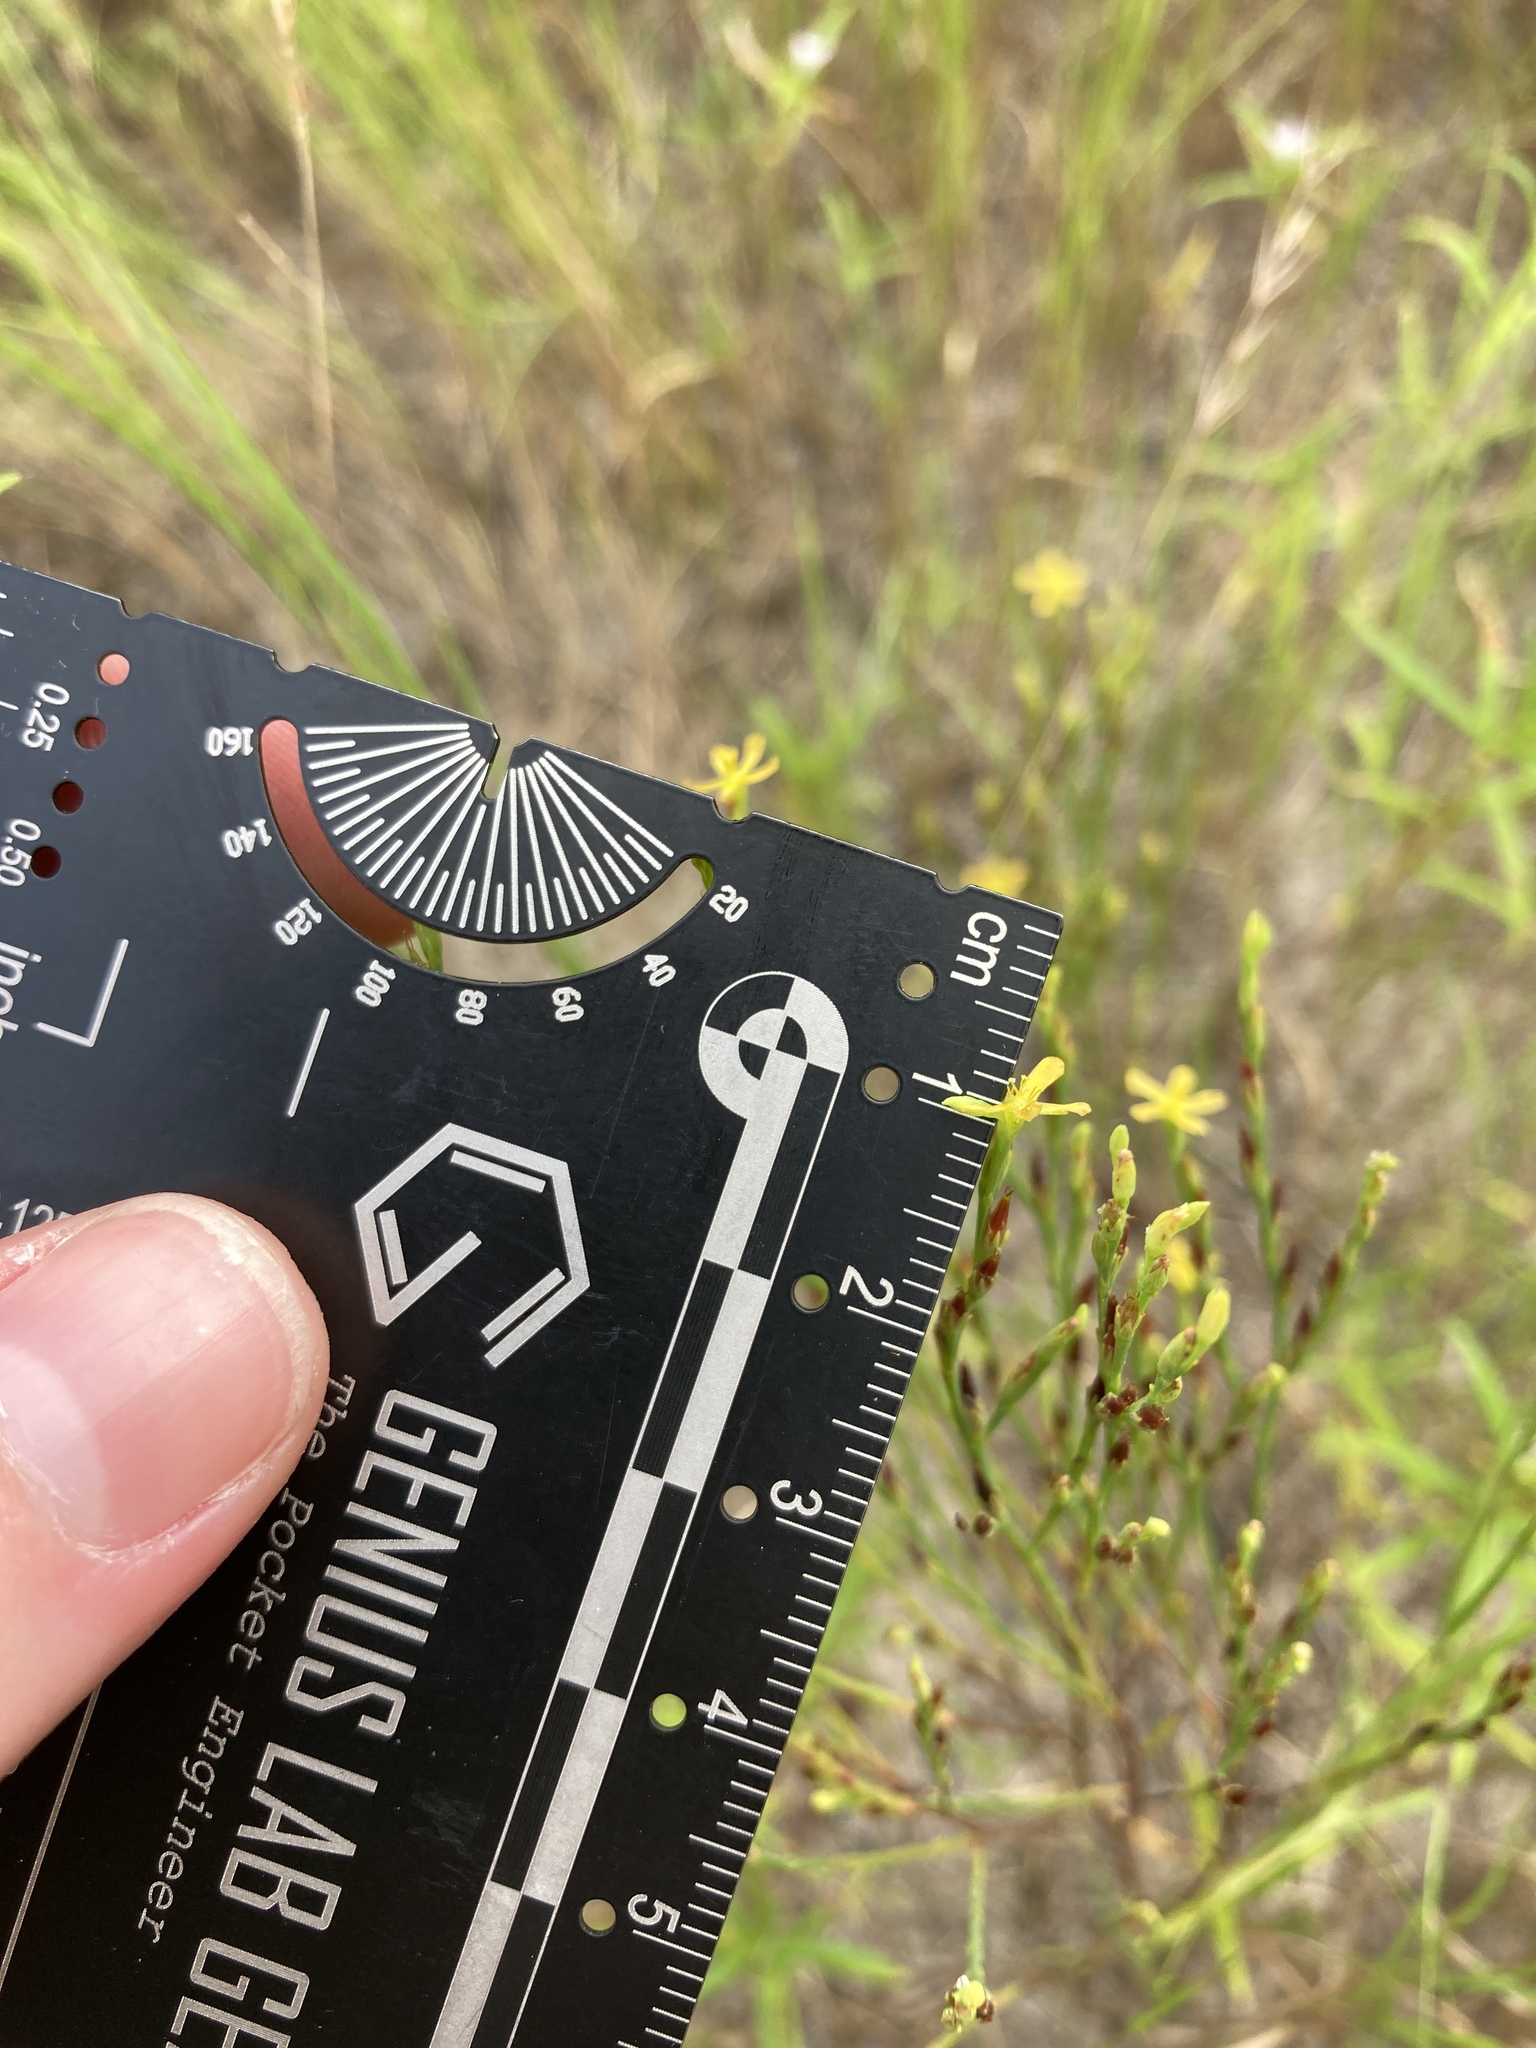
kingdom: Plantae
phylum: Tracheophyta
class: Magnoliopsida
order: Malpighiales
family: Hypericaceae
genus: Hypericum
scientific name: Hypericum gentianoides
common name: Gentian-leaved st. john's-wort
